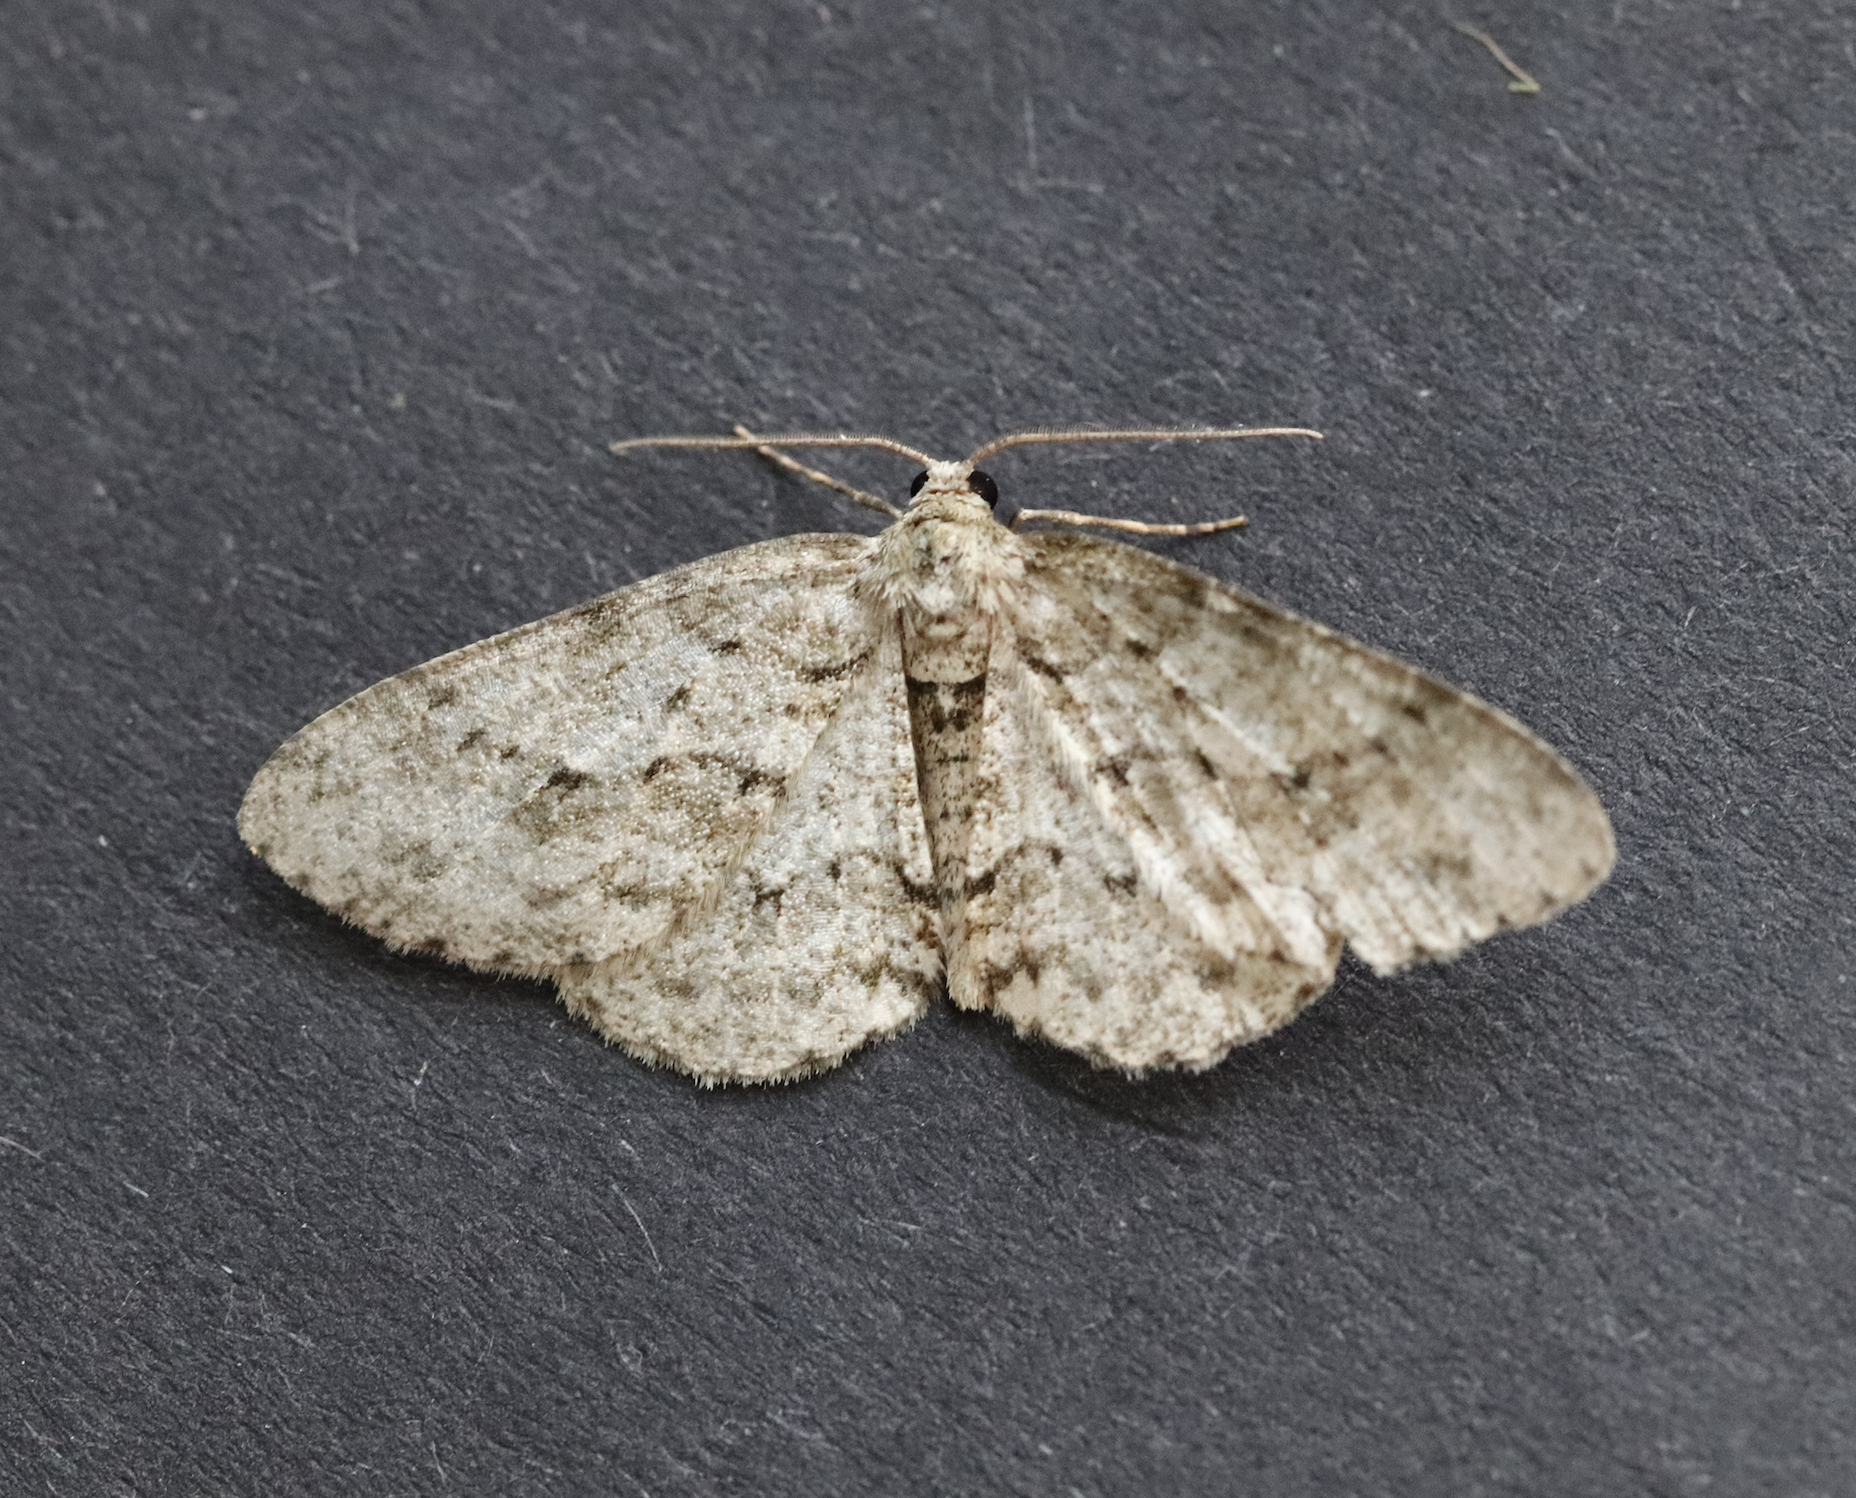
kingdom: Animalia
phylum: Arthropoda
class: Insecta
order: Lepidoptera
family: Geometridae
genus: Ectropis
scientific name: Ectropis crepuscularia
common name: Engrailed
